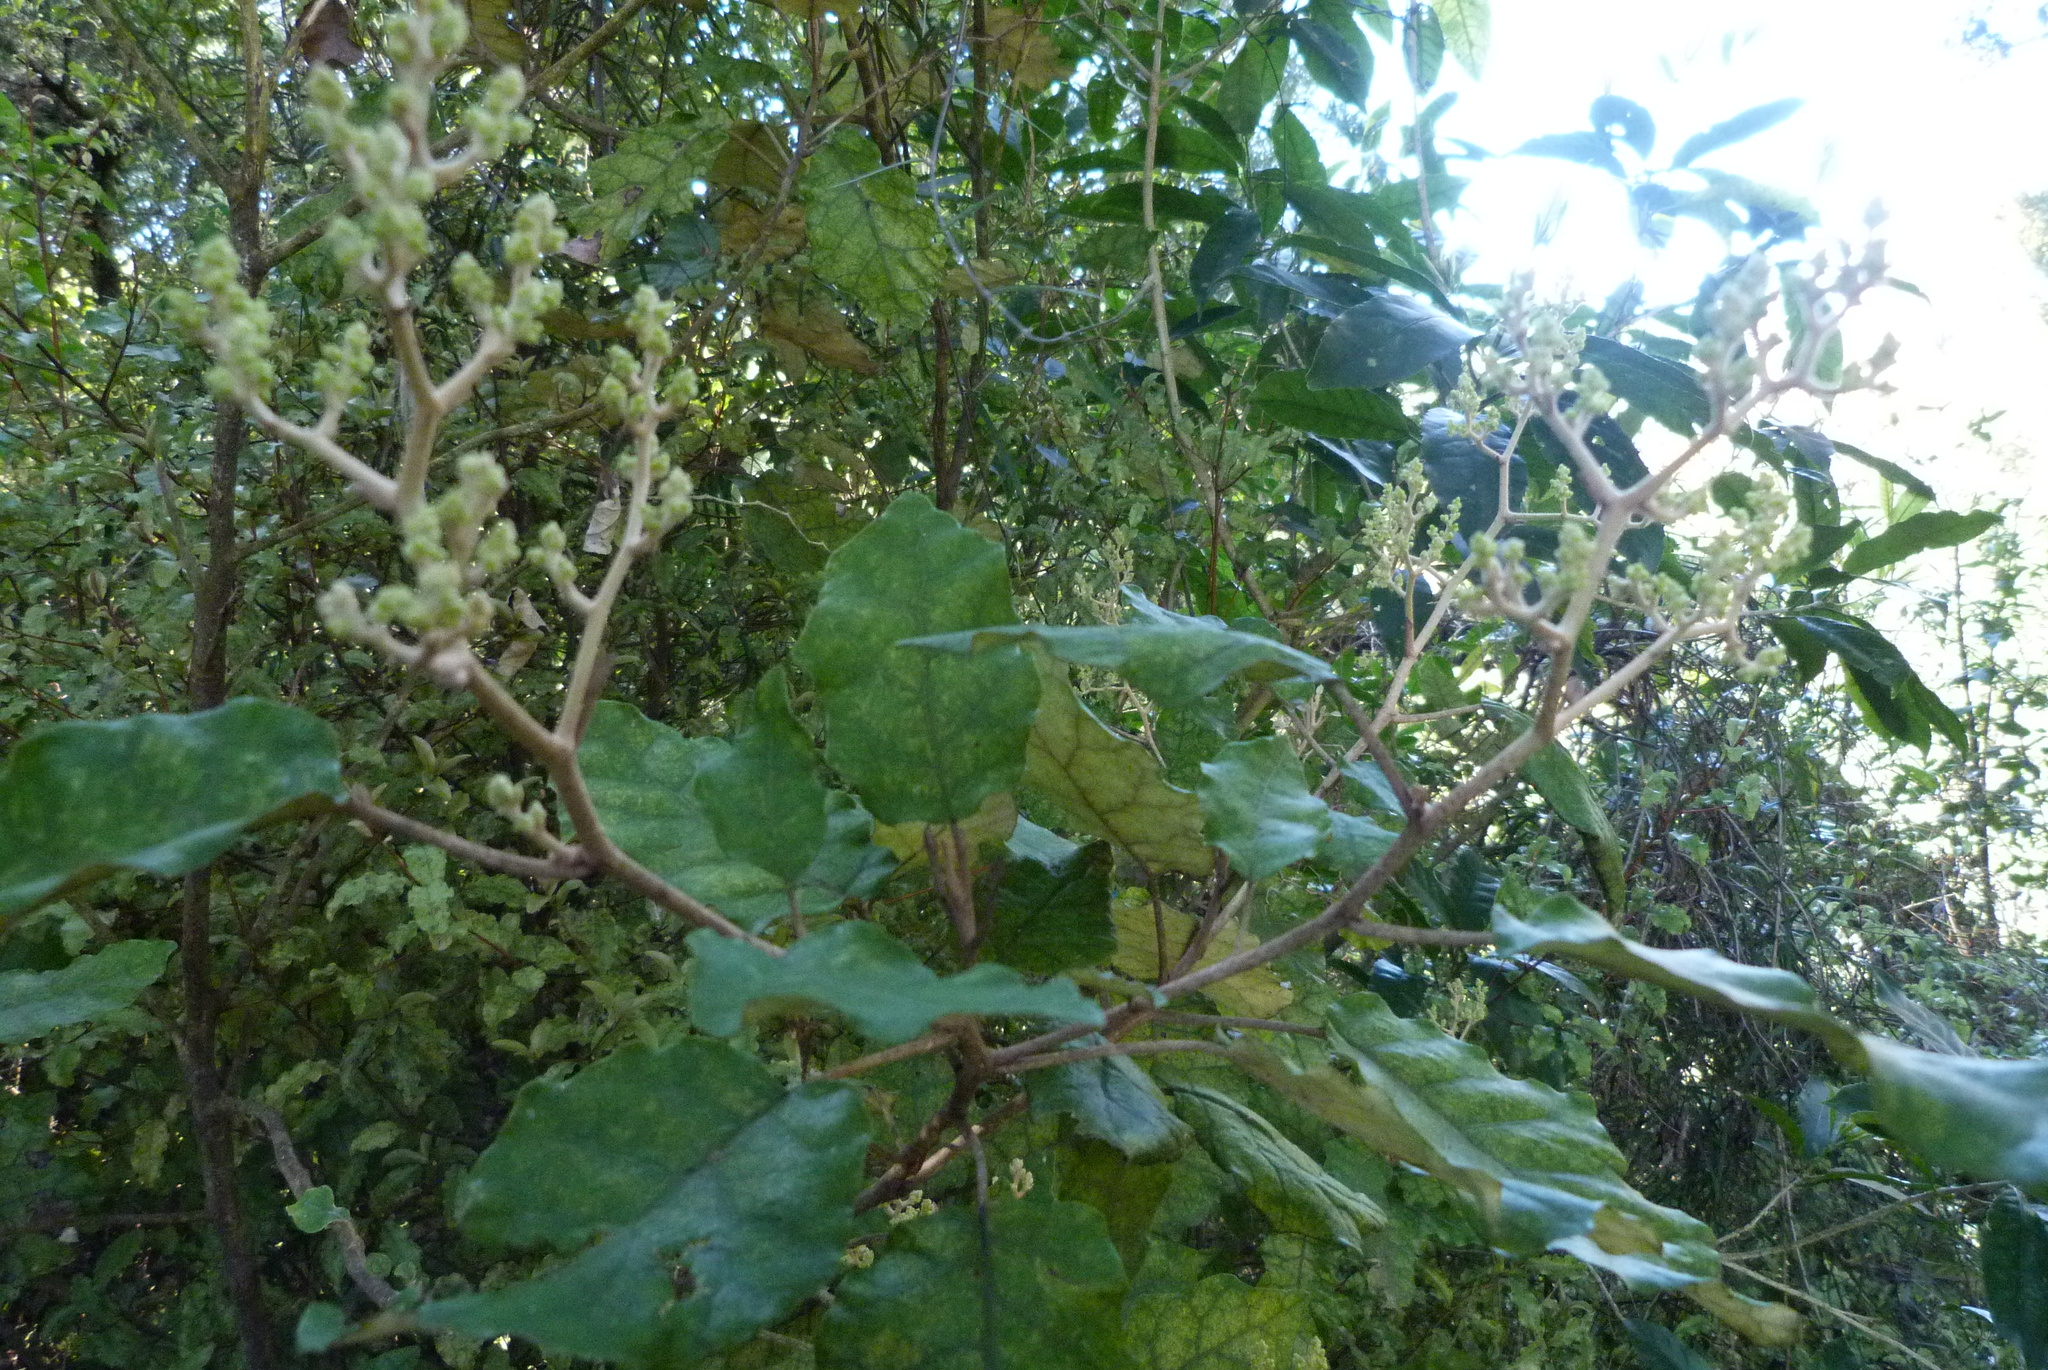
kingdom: Plantae
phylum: Tracheophyta
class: Magnoliopsida
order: Asterales
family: Asteraceae
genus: Brachyglottis
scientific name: Brachyglottis repanda
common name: Hedge ragwort
